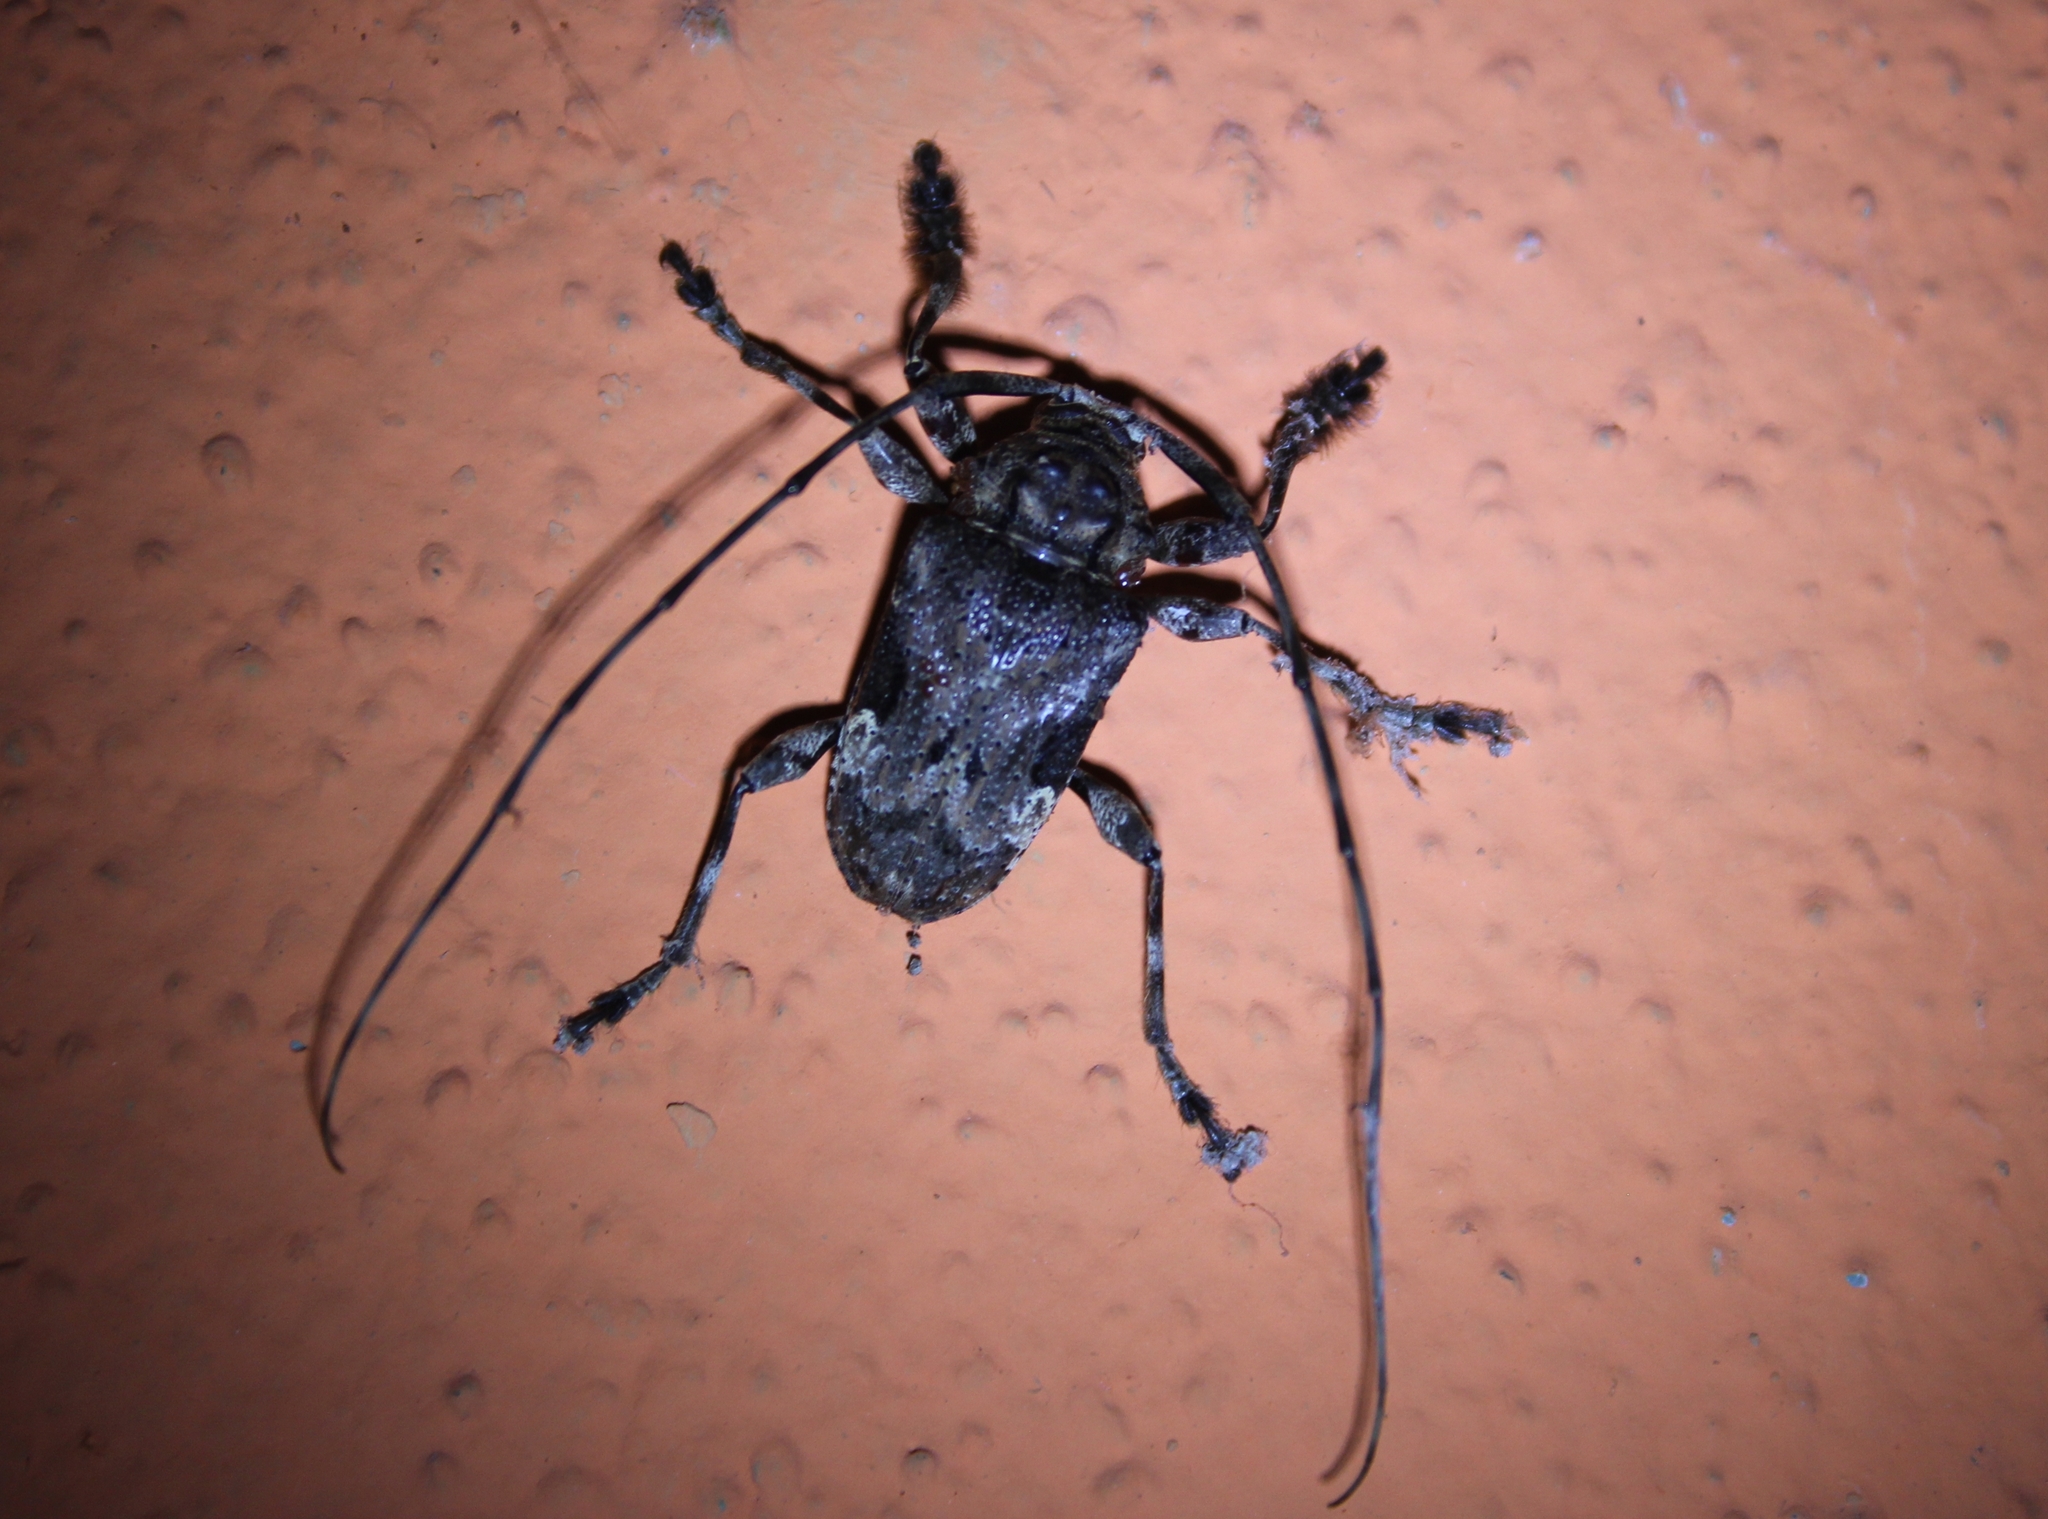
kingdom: Animalia
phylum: Arthropoda
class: Insecta
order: Coleoptera
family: Cerambycidae
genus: Lagocheirus
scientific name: Lagocheirus araneiformis
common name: Beetle
